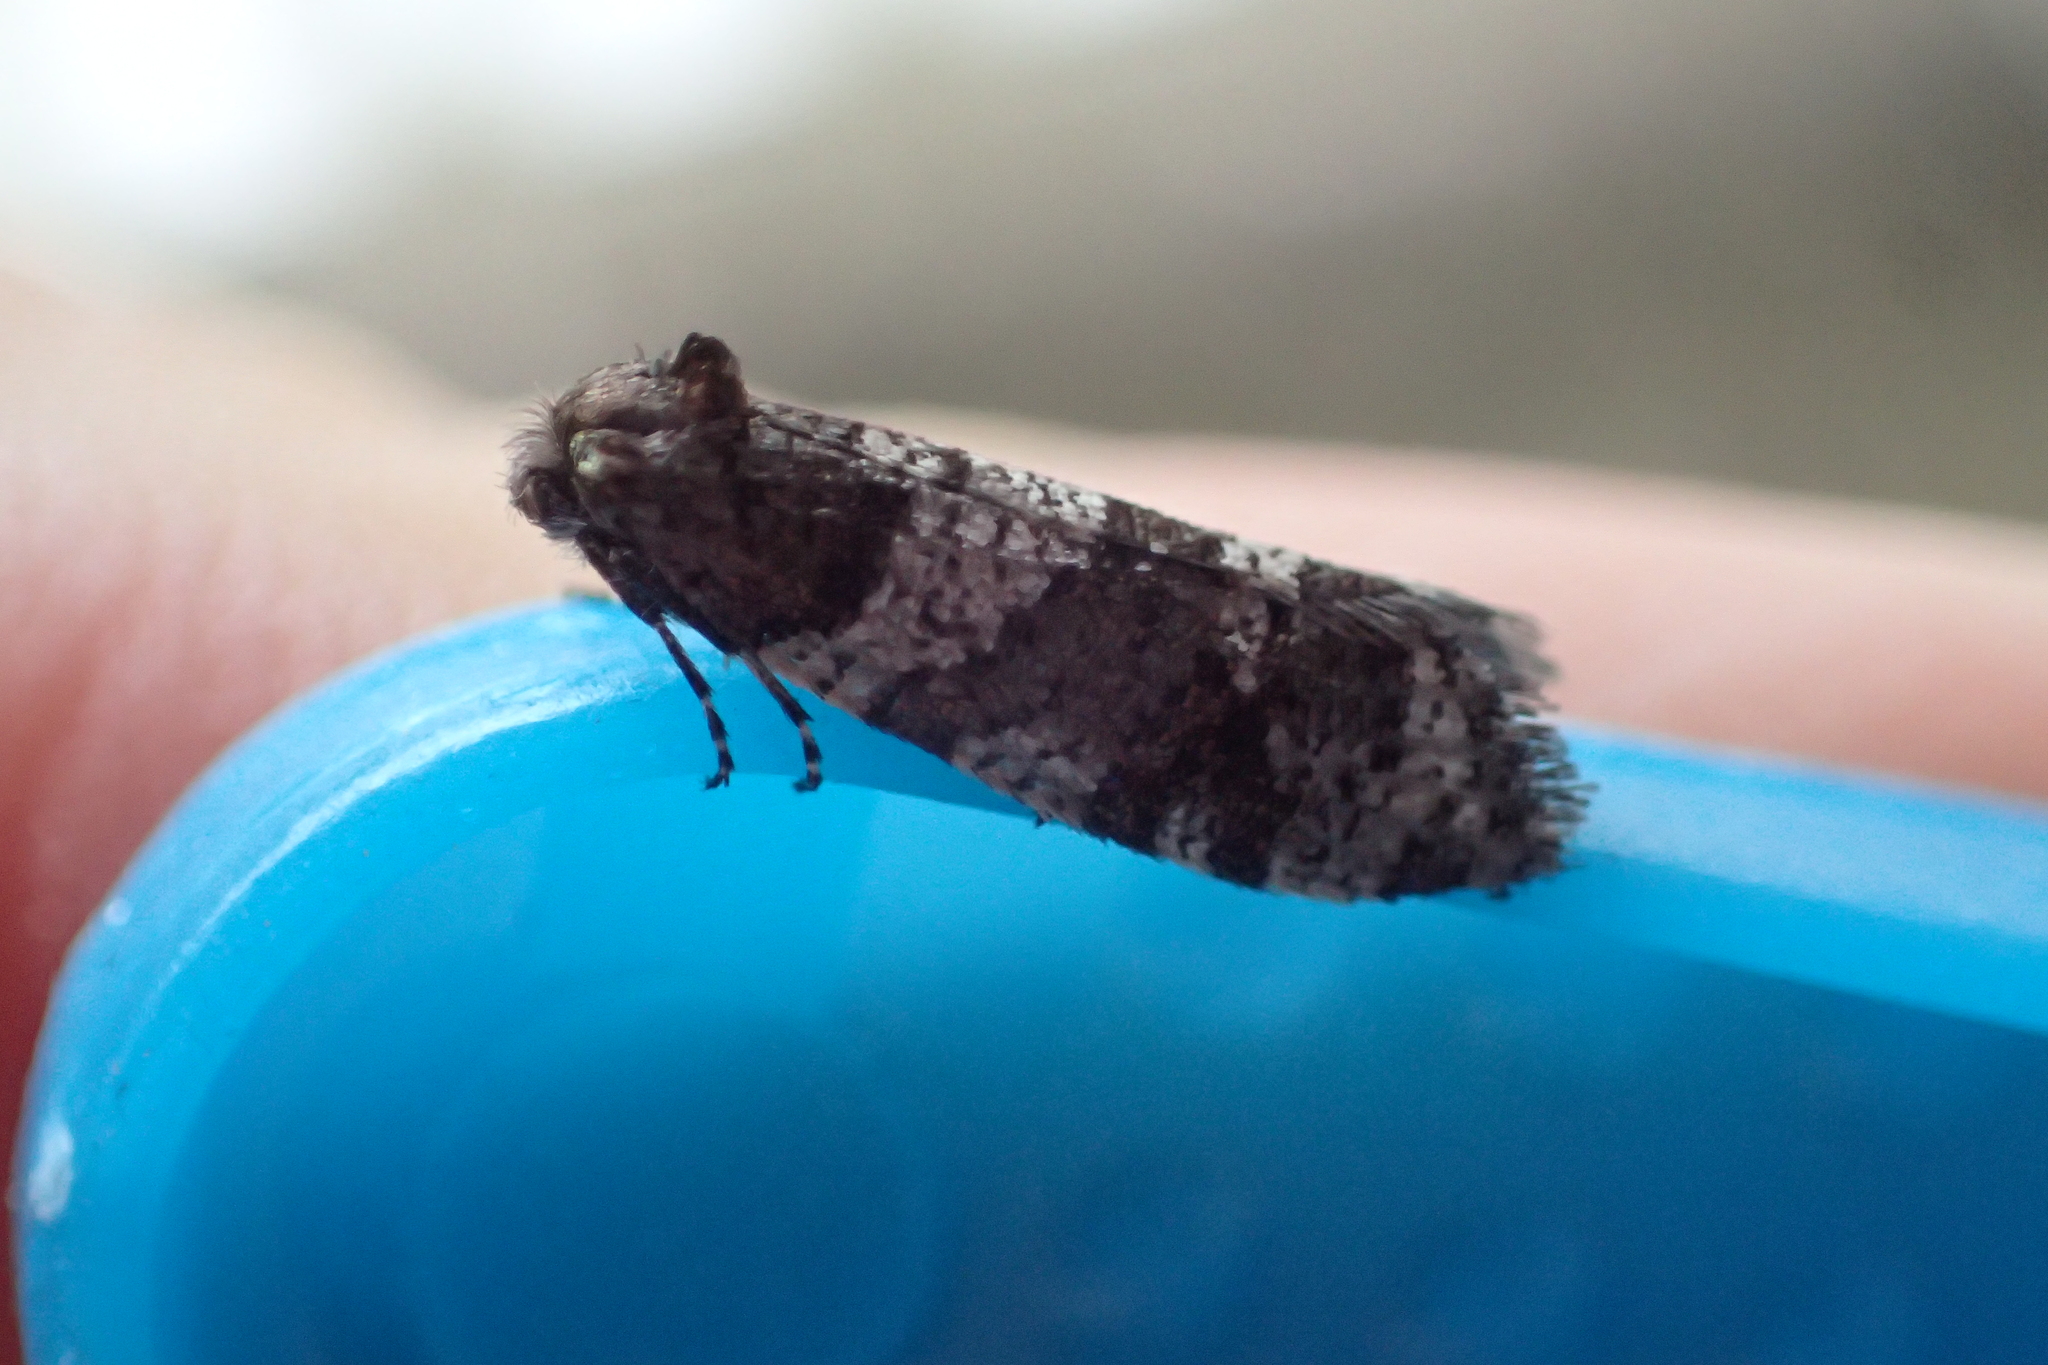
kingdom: Animalia
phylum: Arthropoda
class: Insecta
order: Lepidoptera
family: Psychidae
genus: Lepidoscia
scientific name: Lepidoscia heliochares
